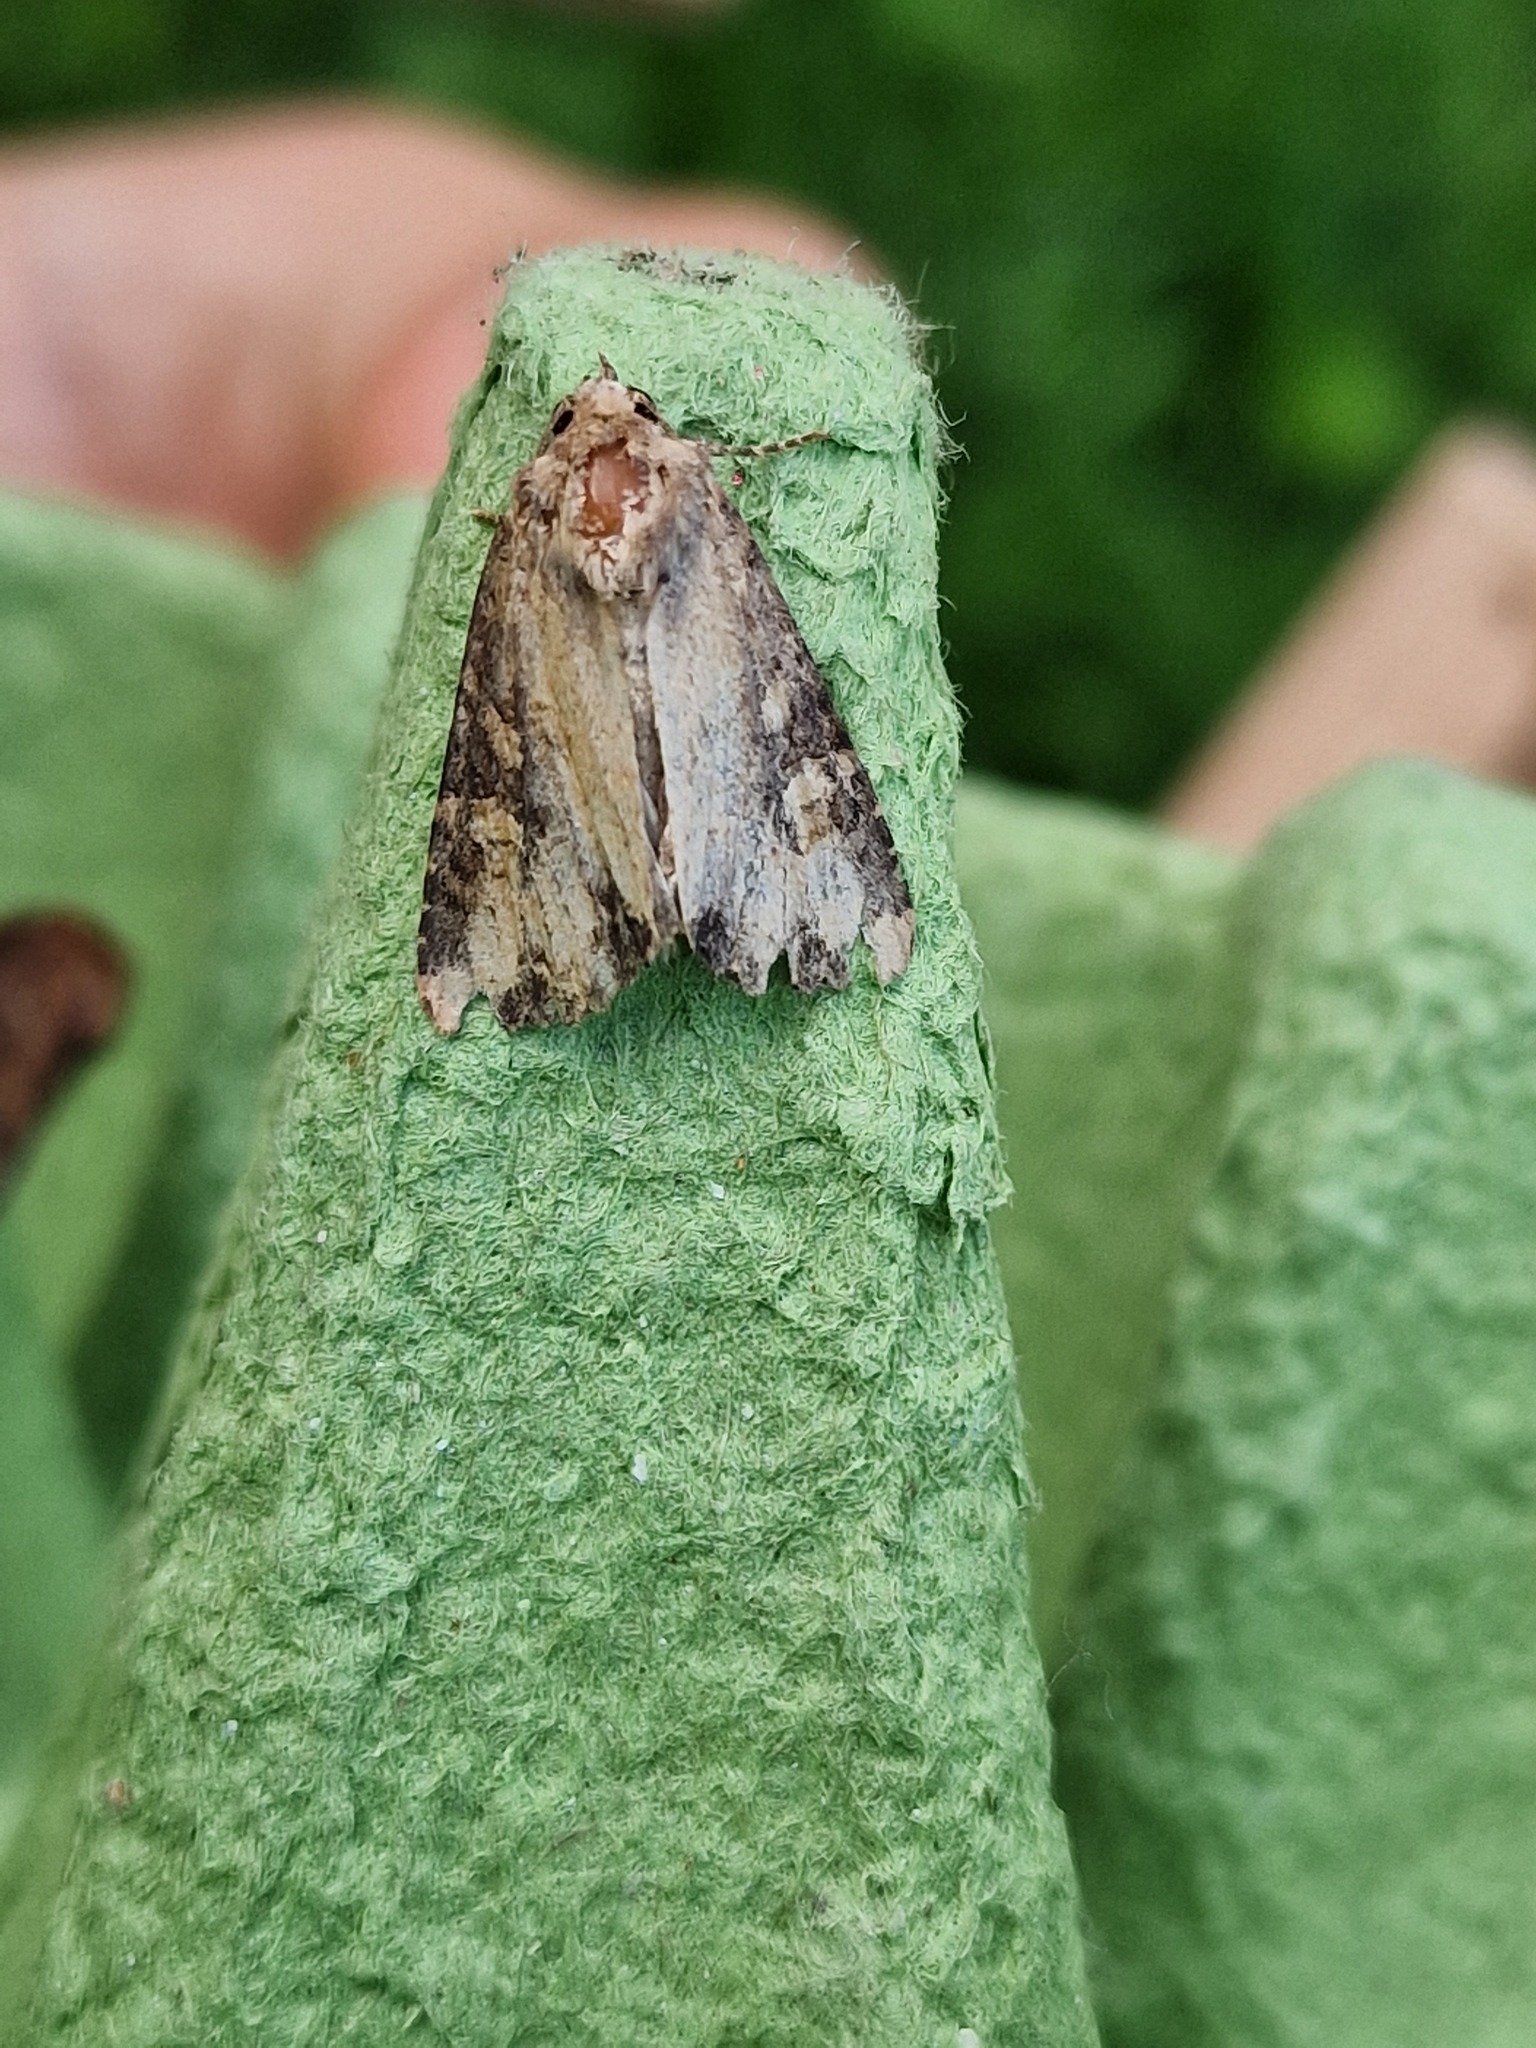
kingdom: Animalia
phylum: Arthropoda
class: Insecta
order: Lepidoptera
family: Noctuidae
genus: Mesapamea
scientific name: Mesapamea
